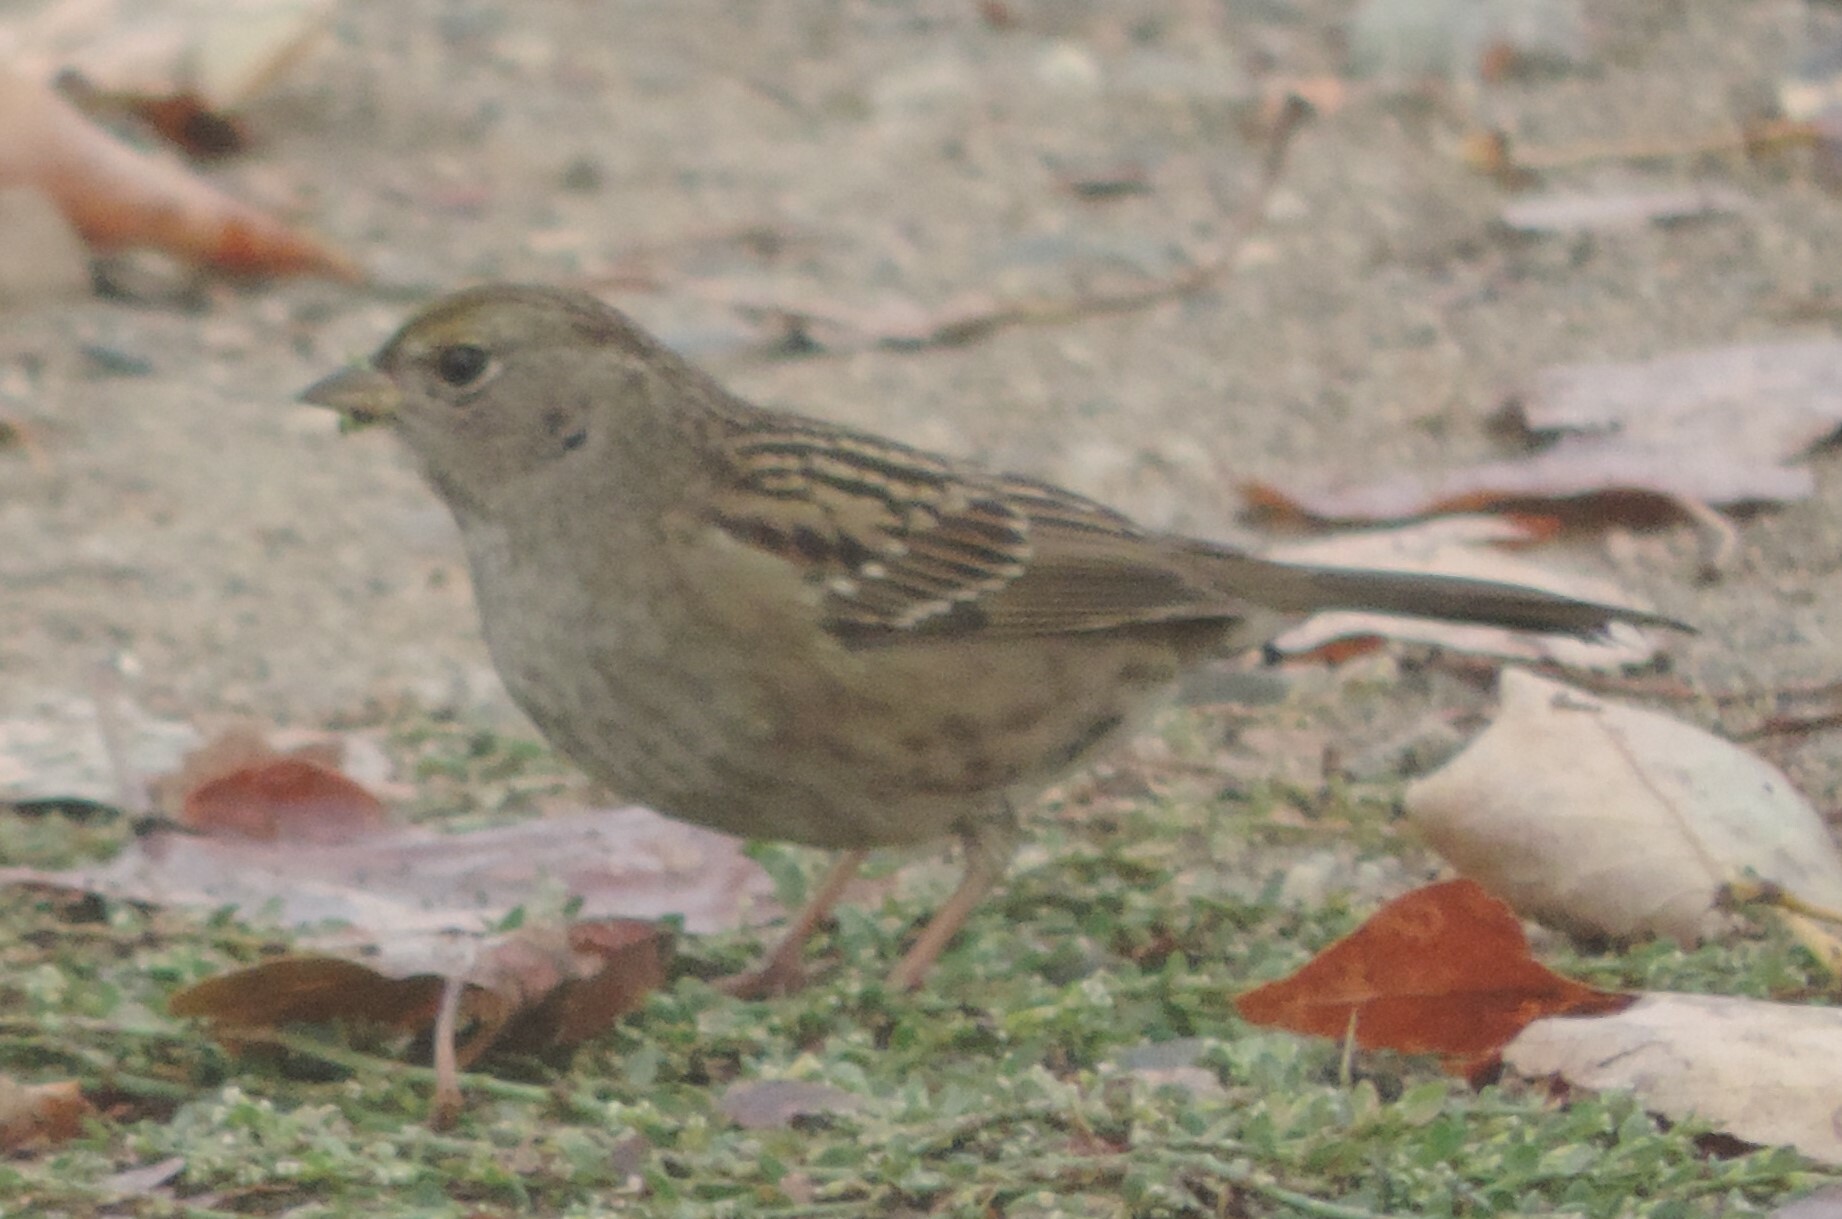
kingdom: Animalia
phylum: Chordata
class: Aves
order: Passeriformes
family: Passerellidae
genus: Zonotrichia
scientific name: Zonotrichia atricapilla
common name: Golden-crowned sparrow
